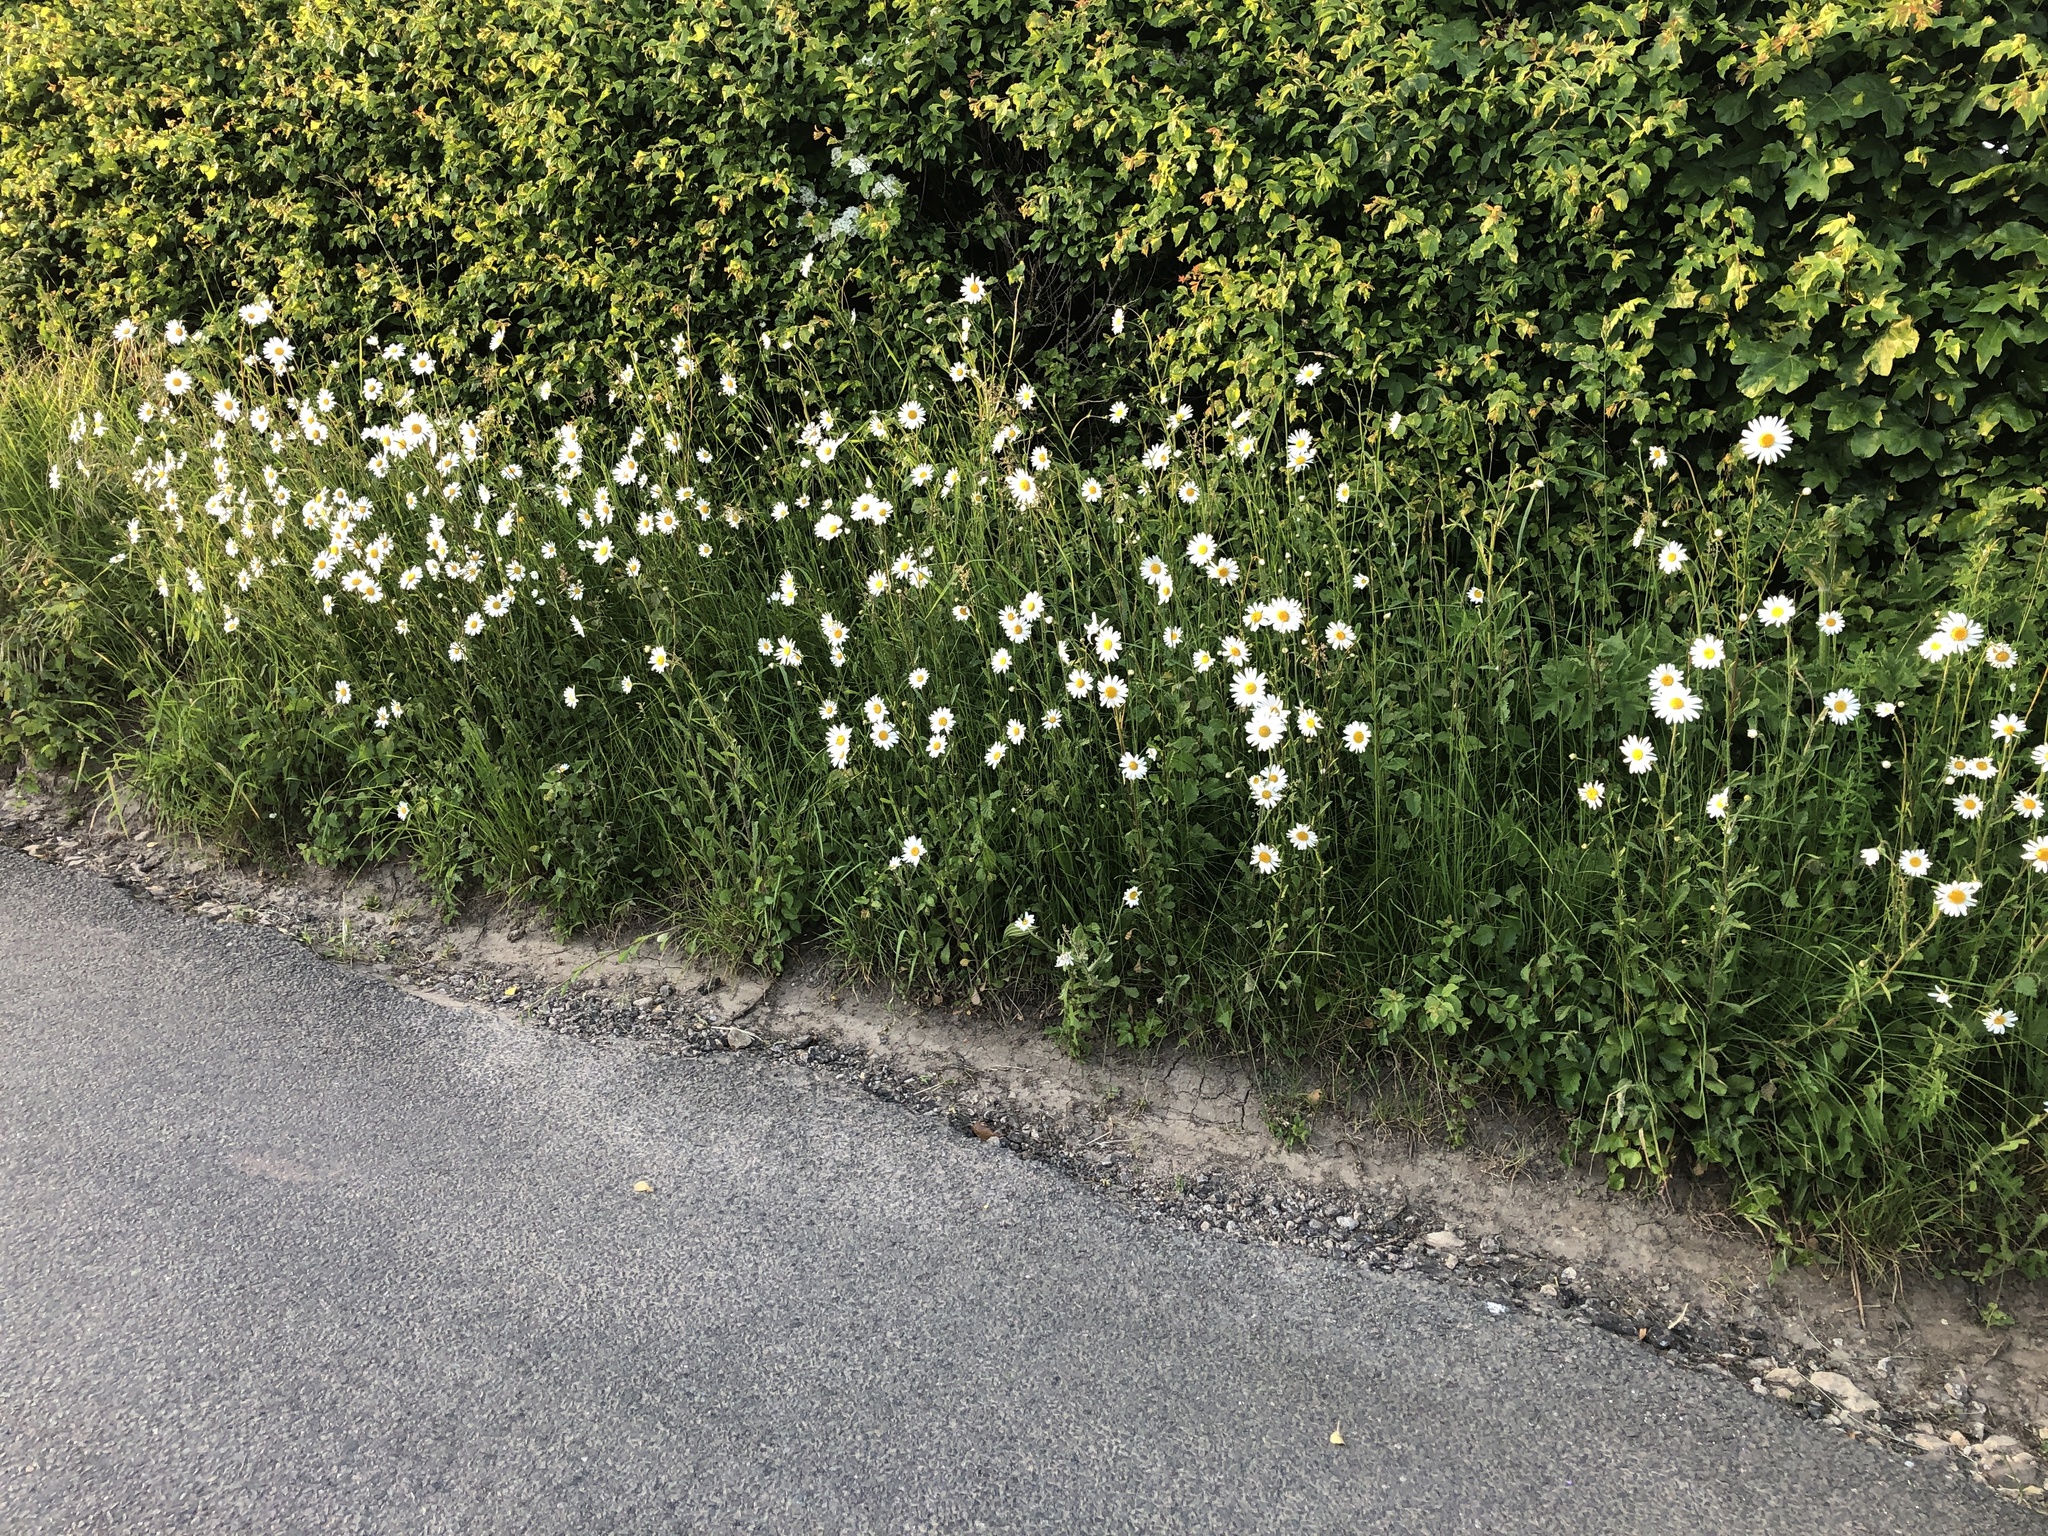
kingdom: Plantae
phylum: Tracheophyta
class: Magnoliopsida
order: Asterales
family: Asteraceae
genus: Leucanthemum
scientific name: Leucanthemum vulgare
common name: Oxeye daisy
